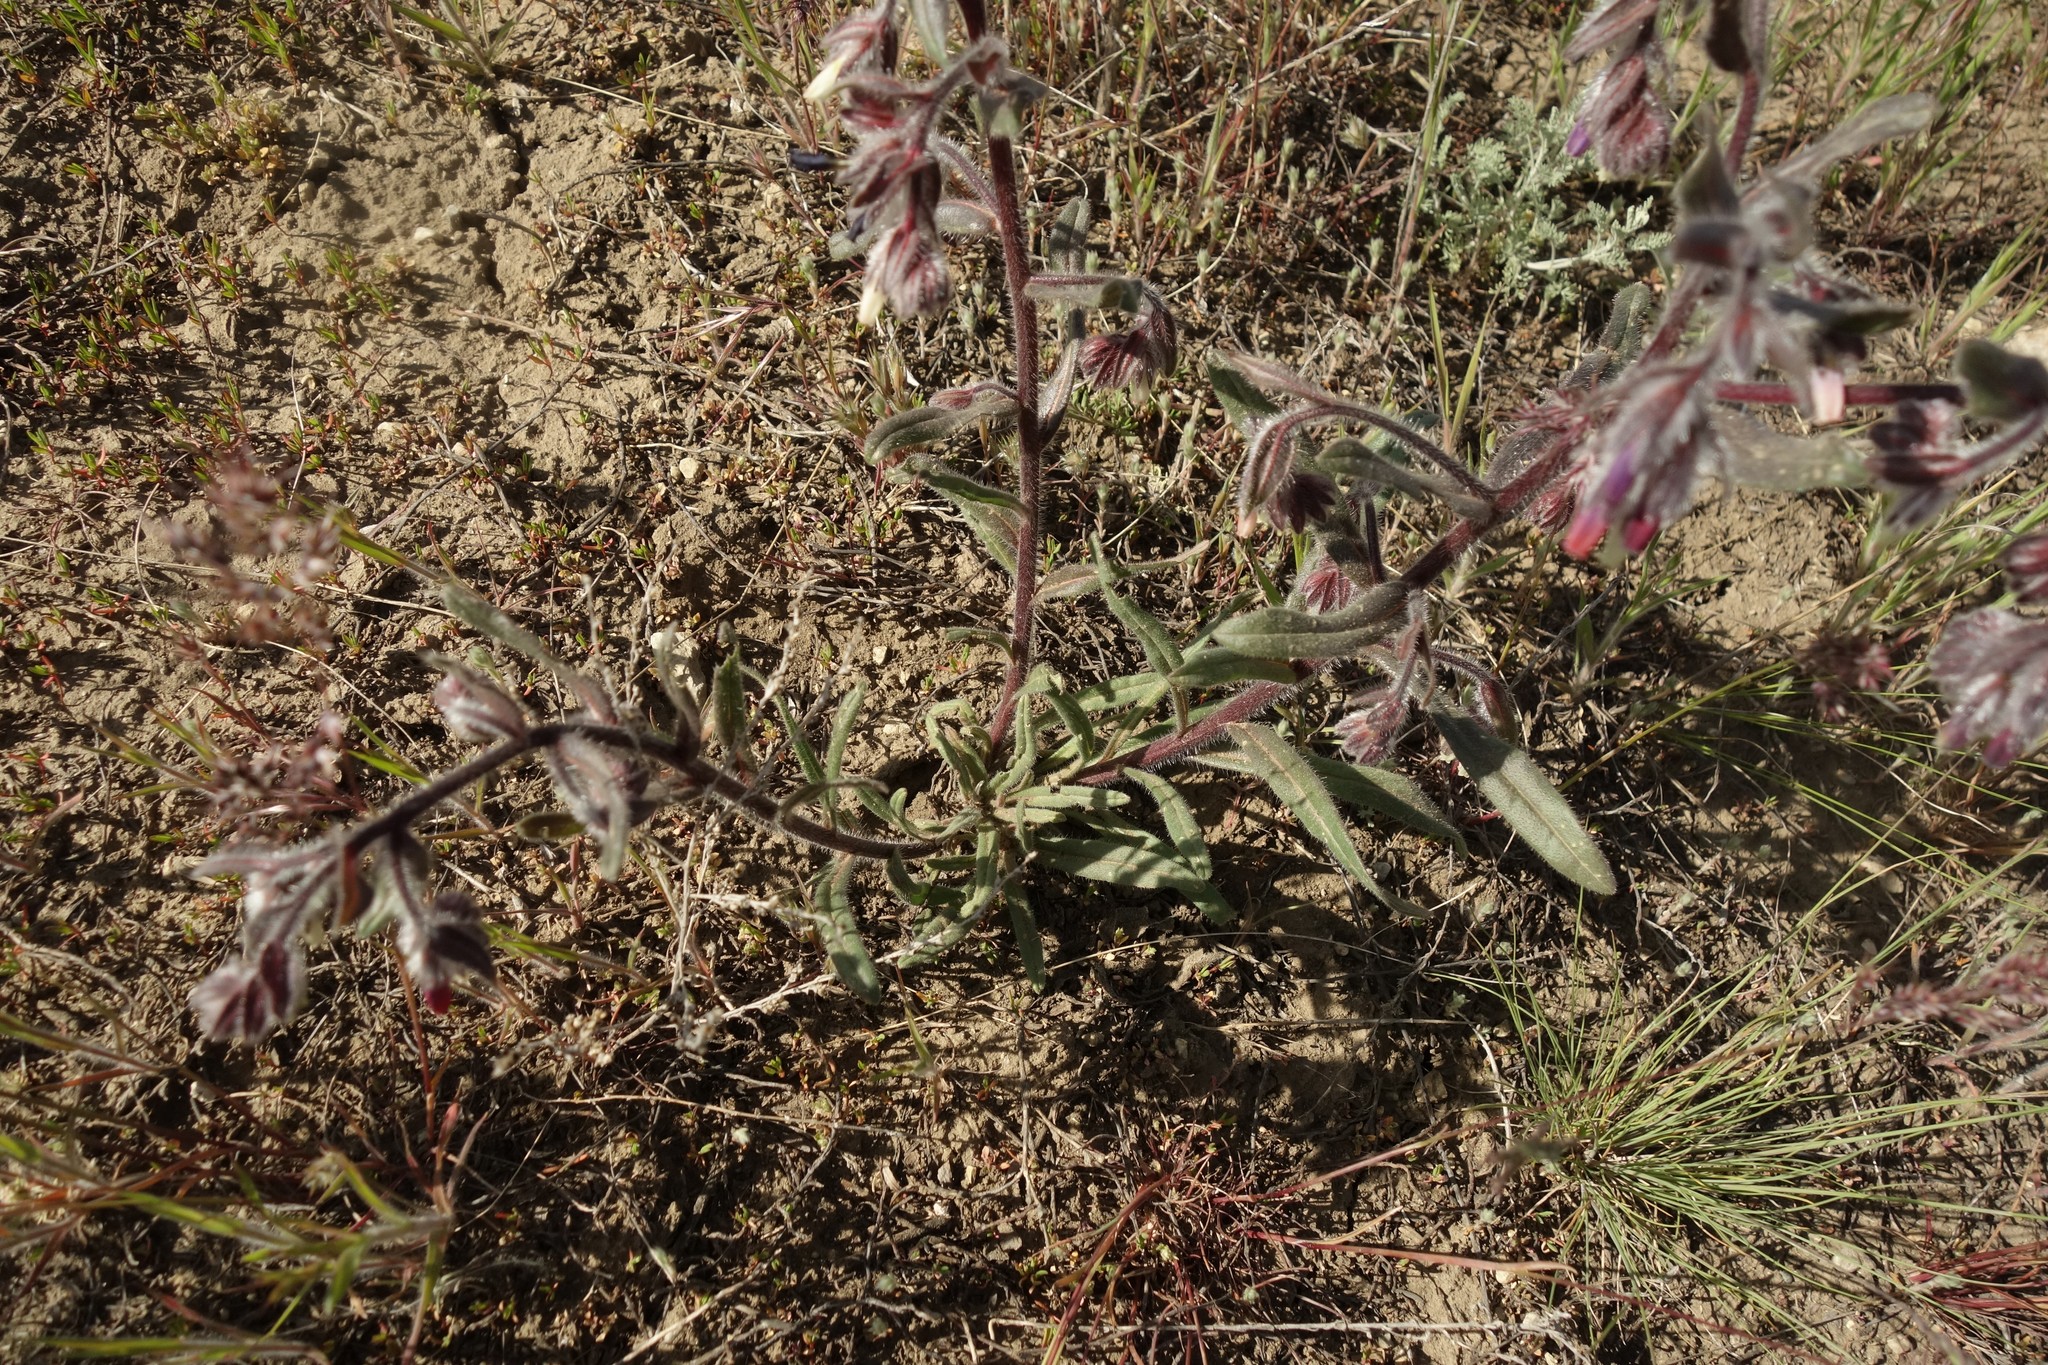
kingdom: Plantae
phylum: Tracheophyta
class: Magnoliopsida
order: Boraginales
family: Boraginaceae
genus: Onosma
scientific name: Onosma polychroma
